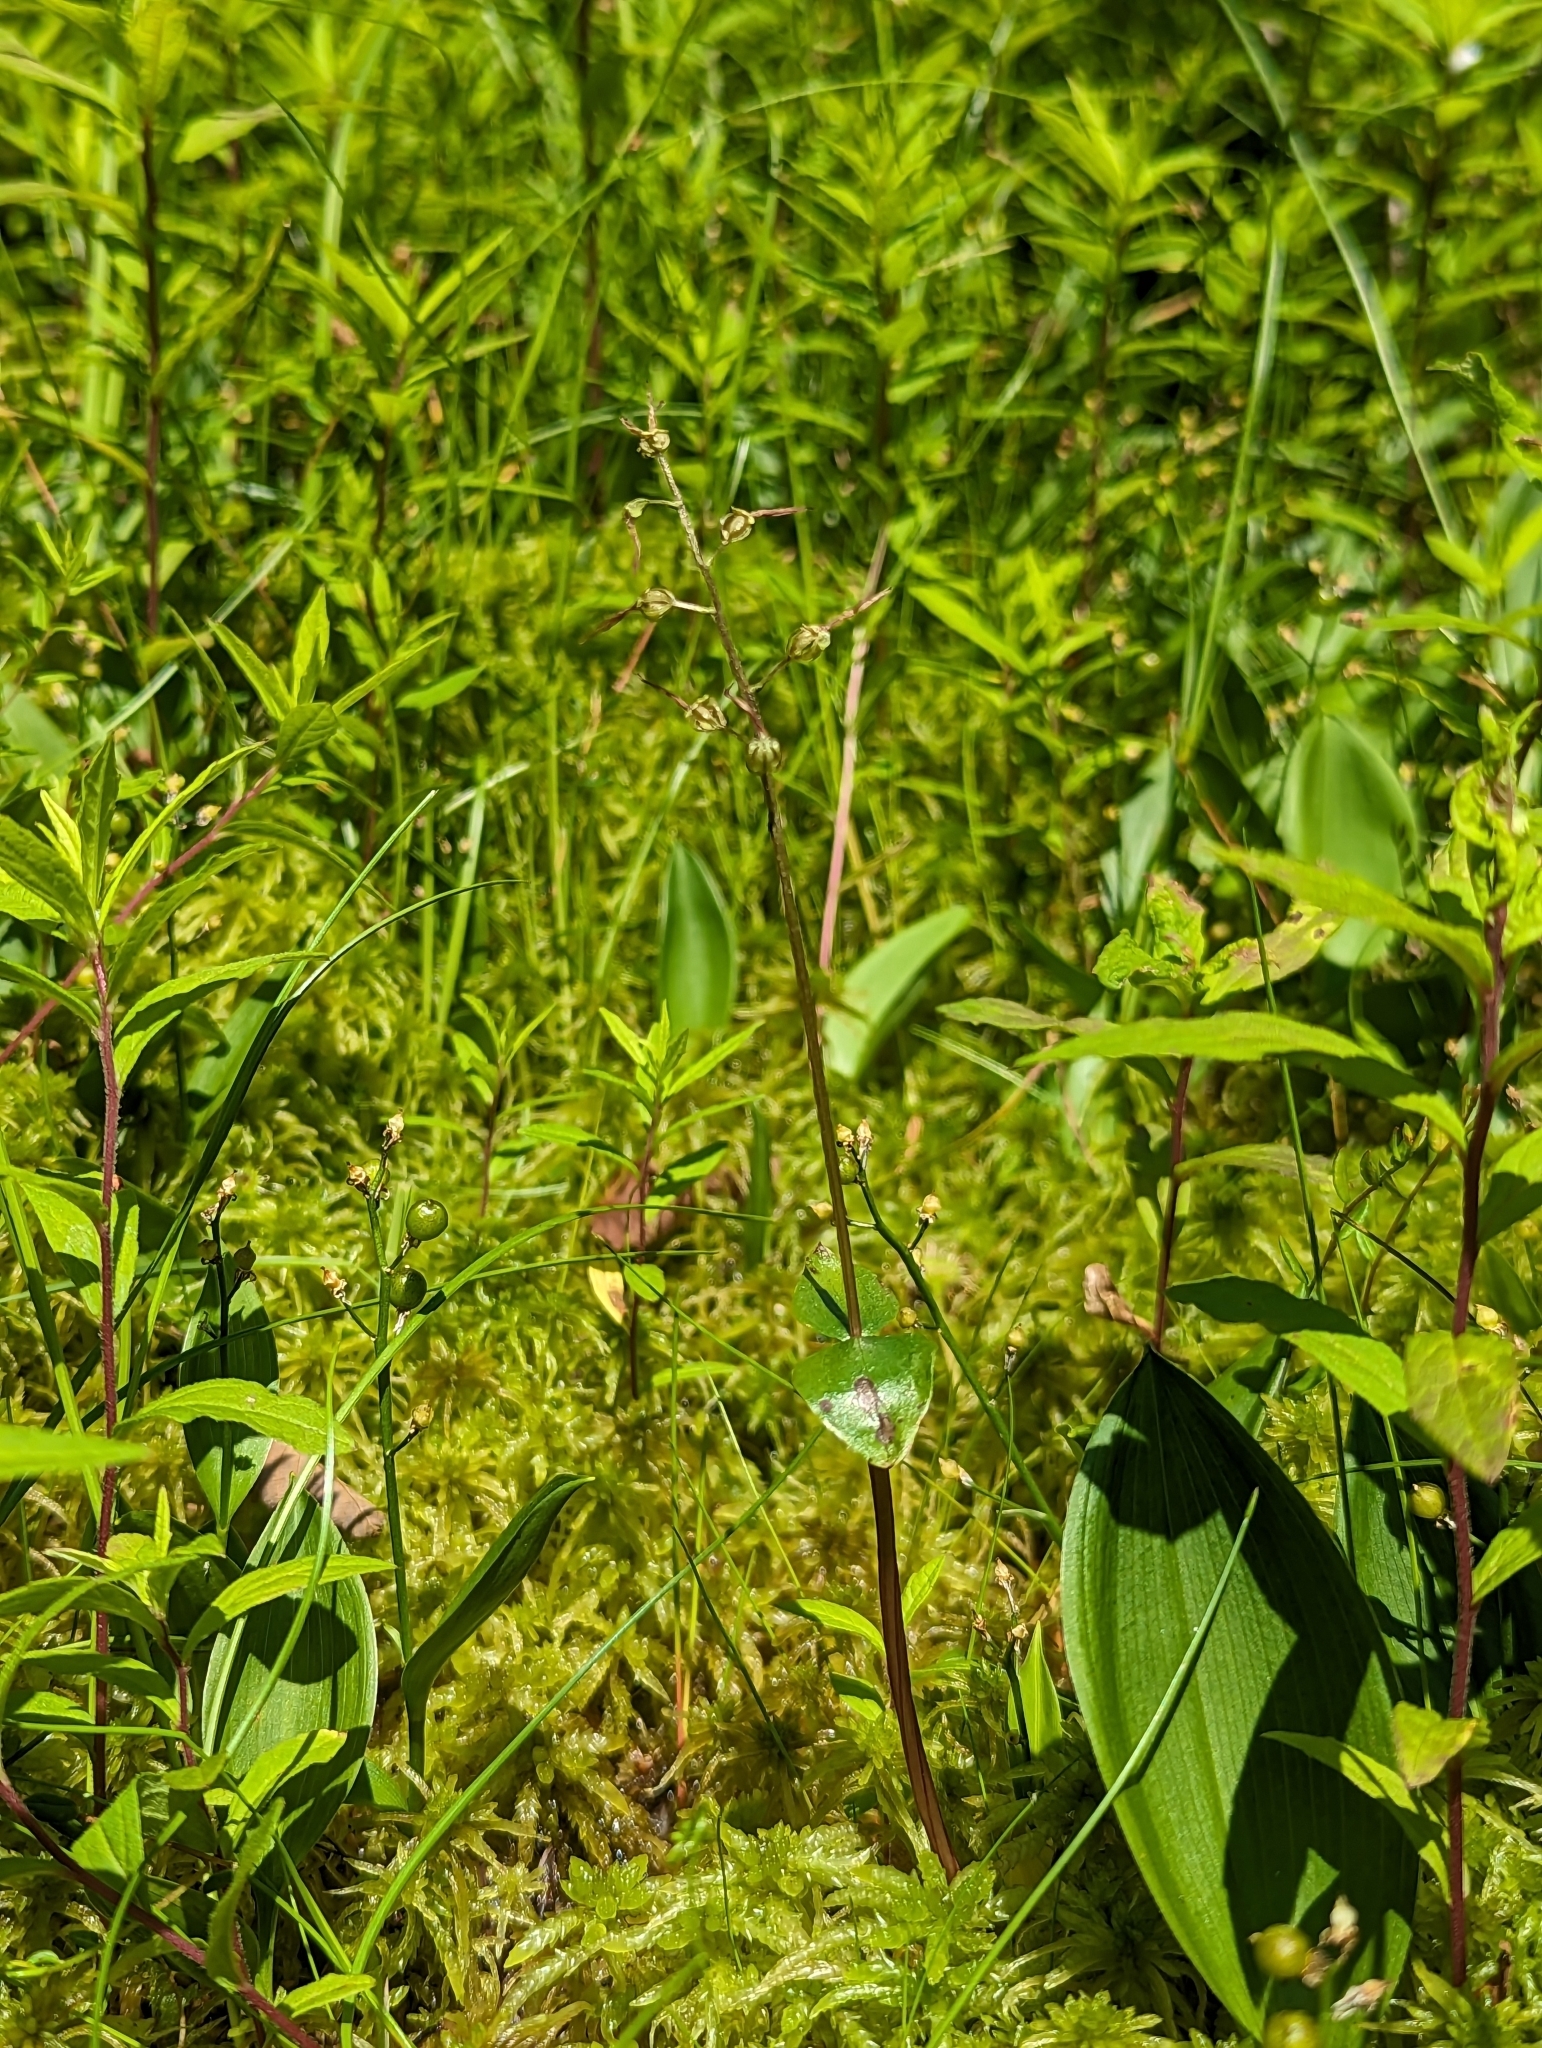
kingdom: Plantae
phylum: Tracheophyta
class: Liliopsida
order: Asparagales
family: Orchidaceae
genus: Neottia
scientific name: Neottia bifolia
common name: Southern twayblade
